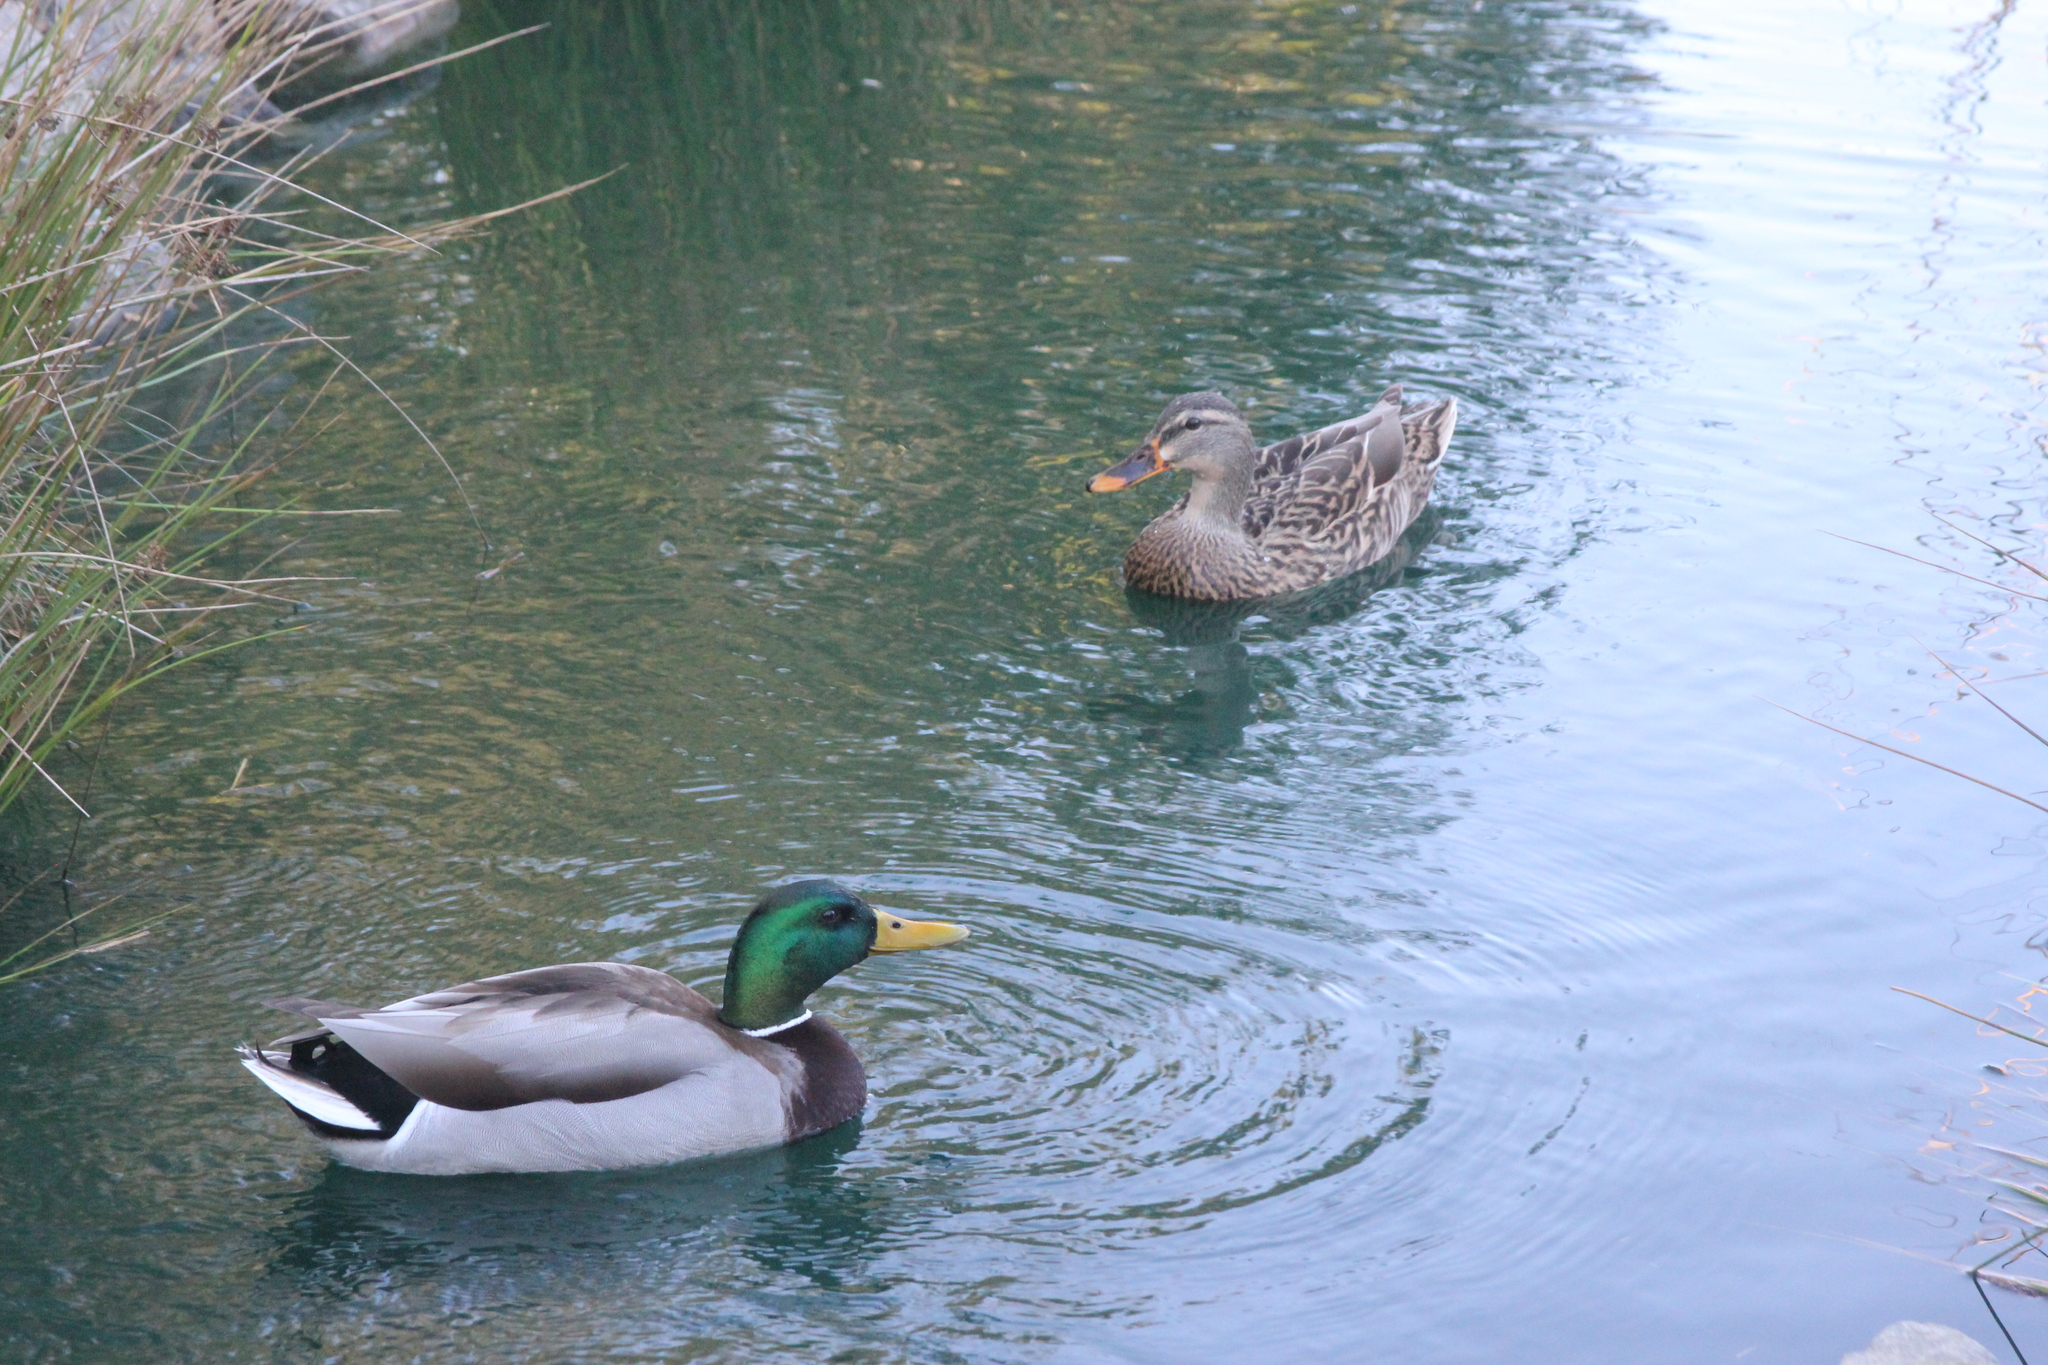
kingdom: Animalia
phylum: Chordata
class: Aves
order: Anseriformes
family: Anatidae
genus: Anas
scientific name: Anas platyrhynchos
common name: Mallard
